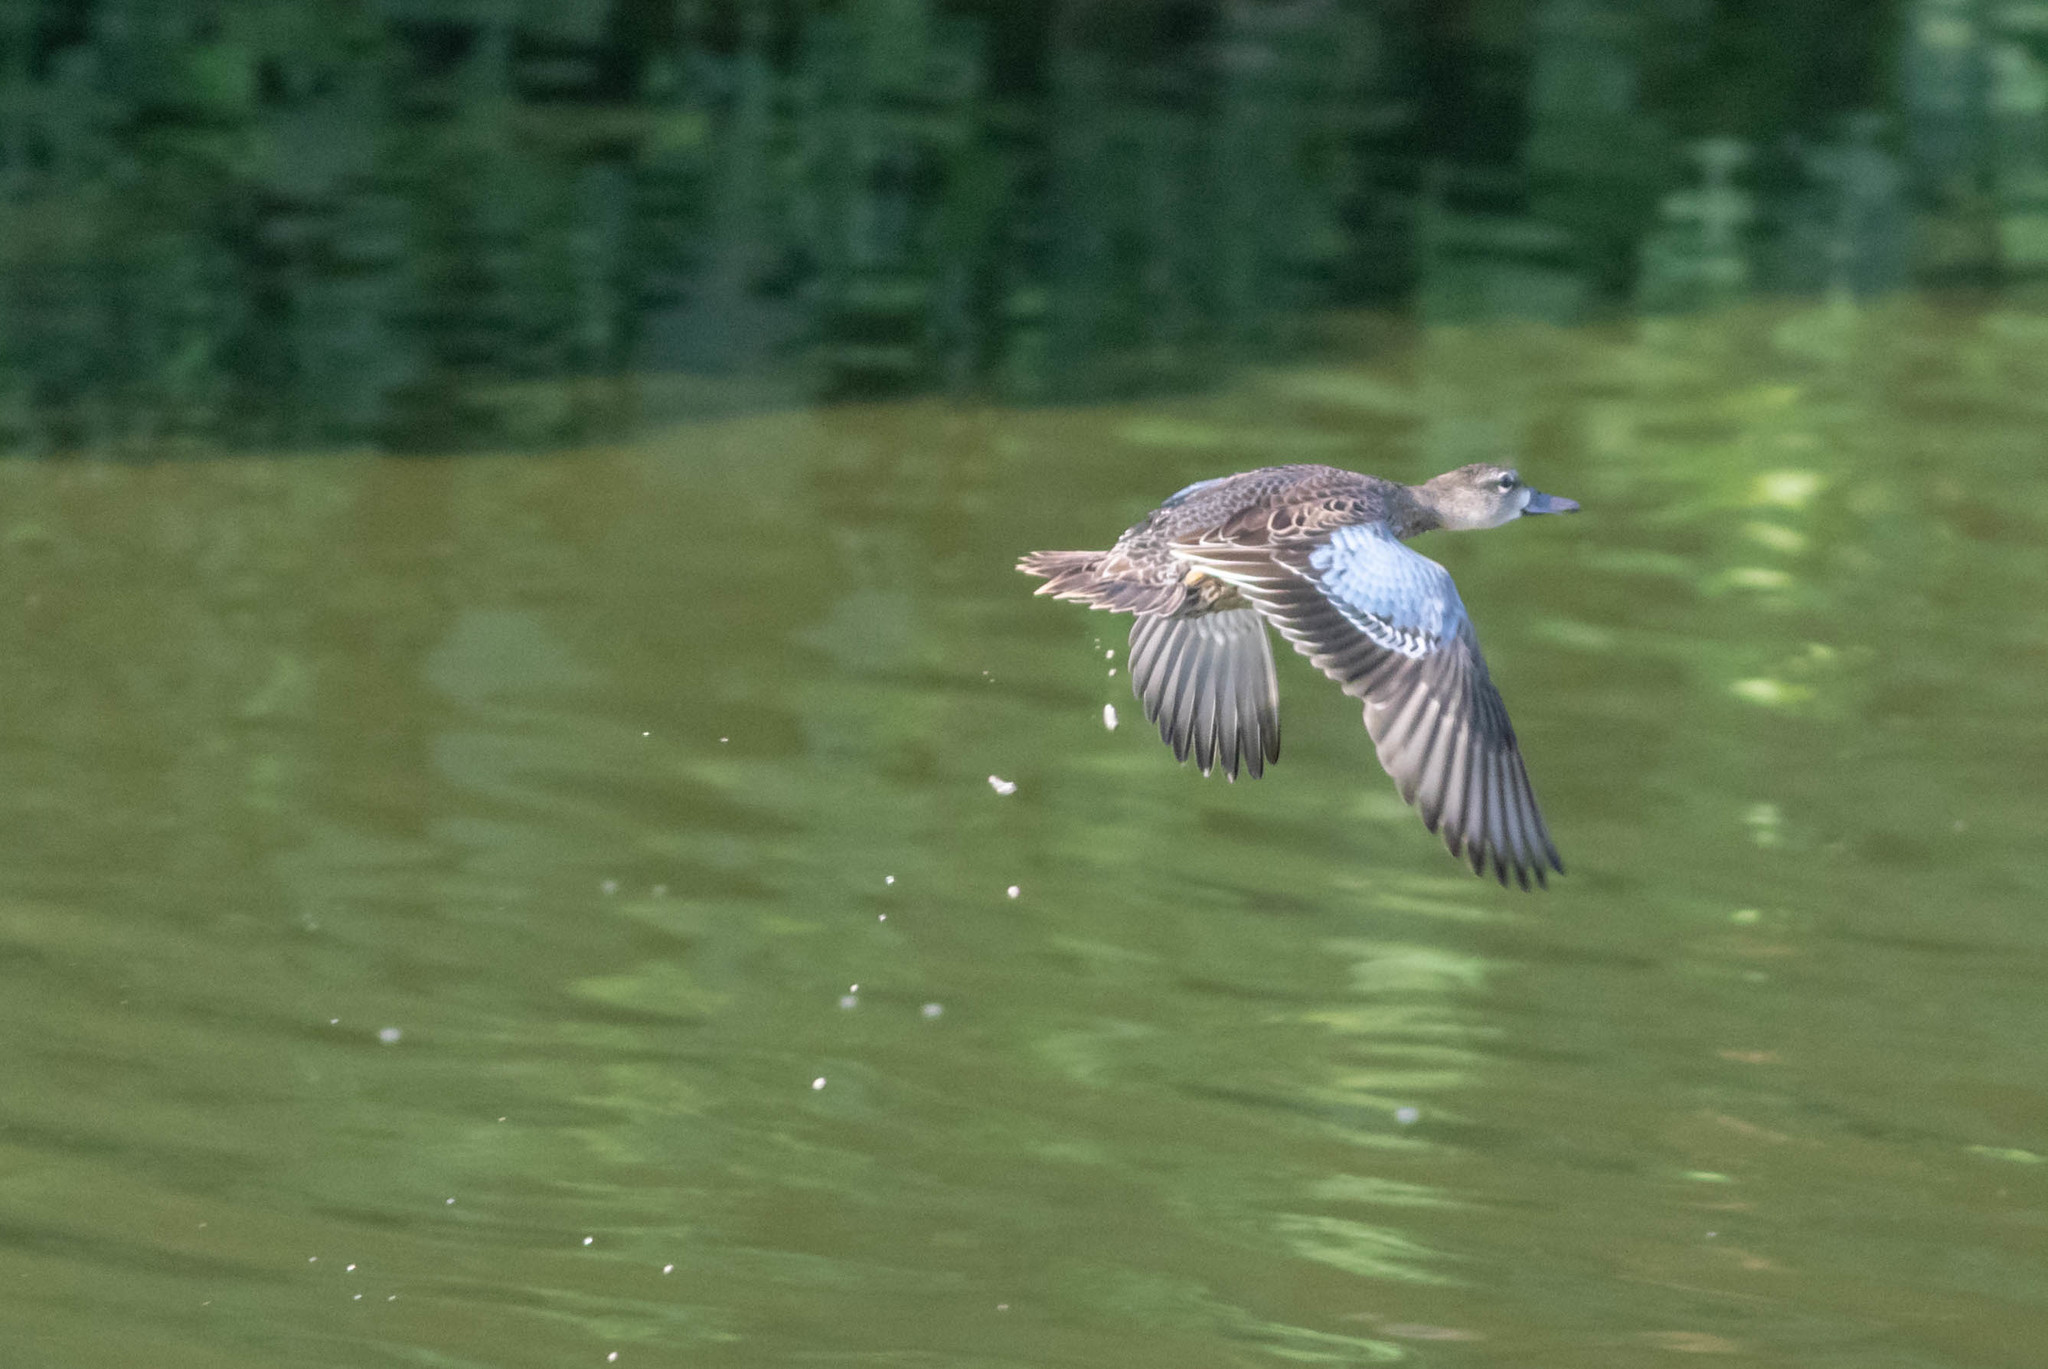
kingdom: Animalia
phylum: Chordata
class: Aves
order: Anseriformes
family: Anatidae
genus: Spatula
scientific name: Spatula discors
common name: Blue-winged teal
